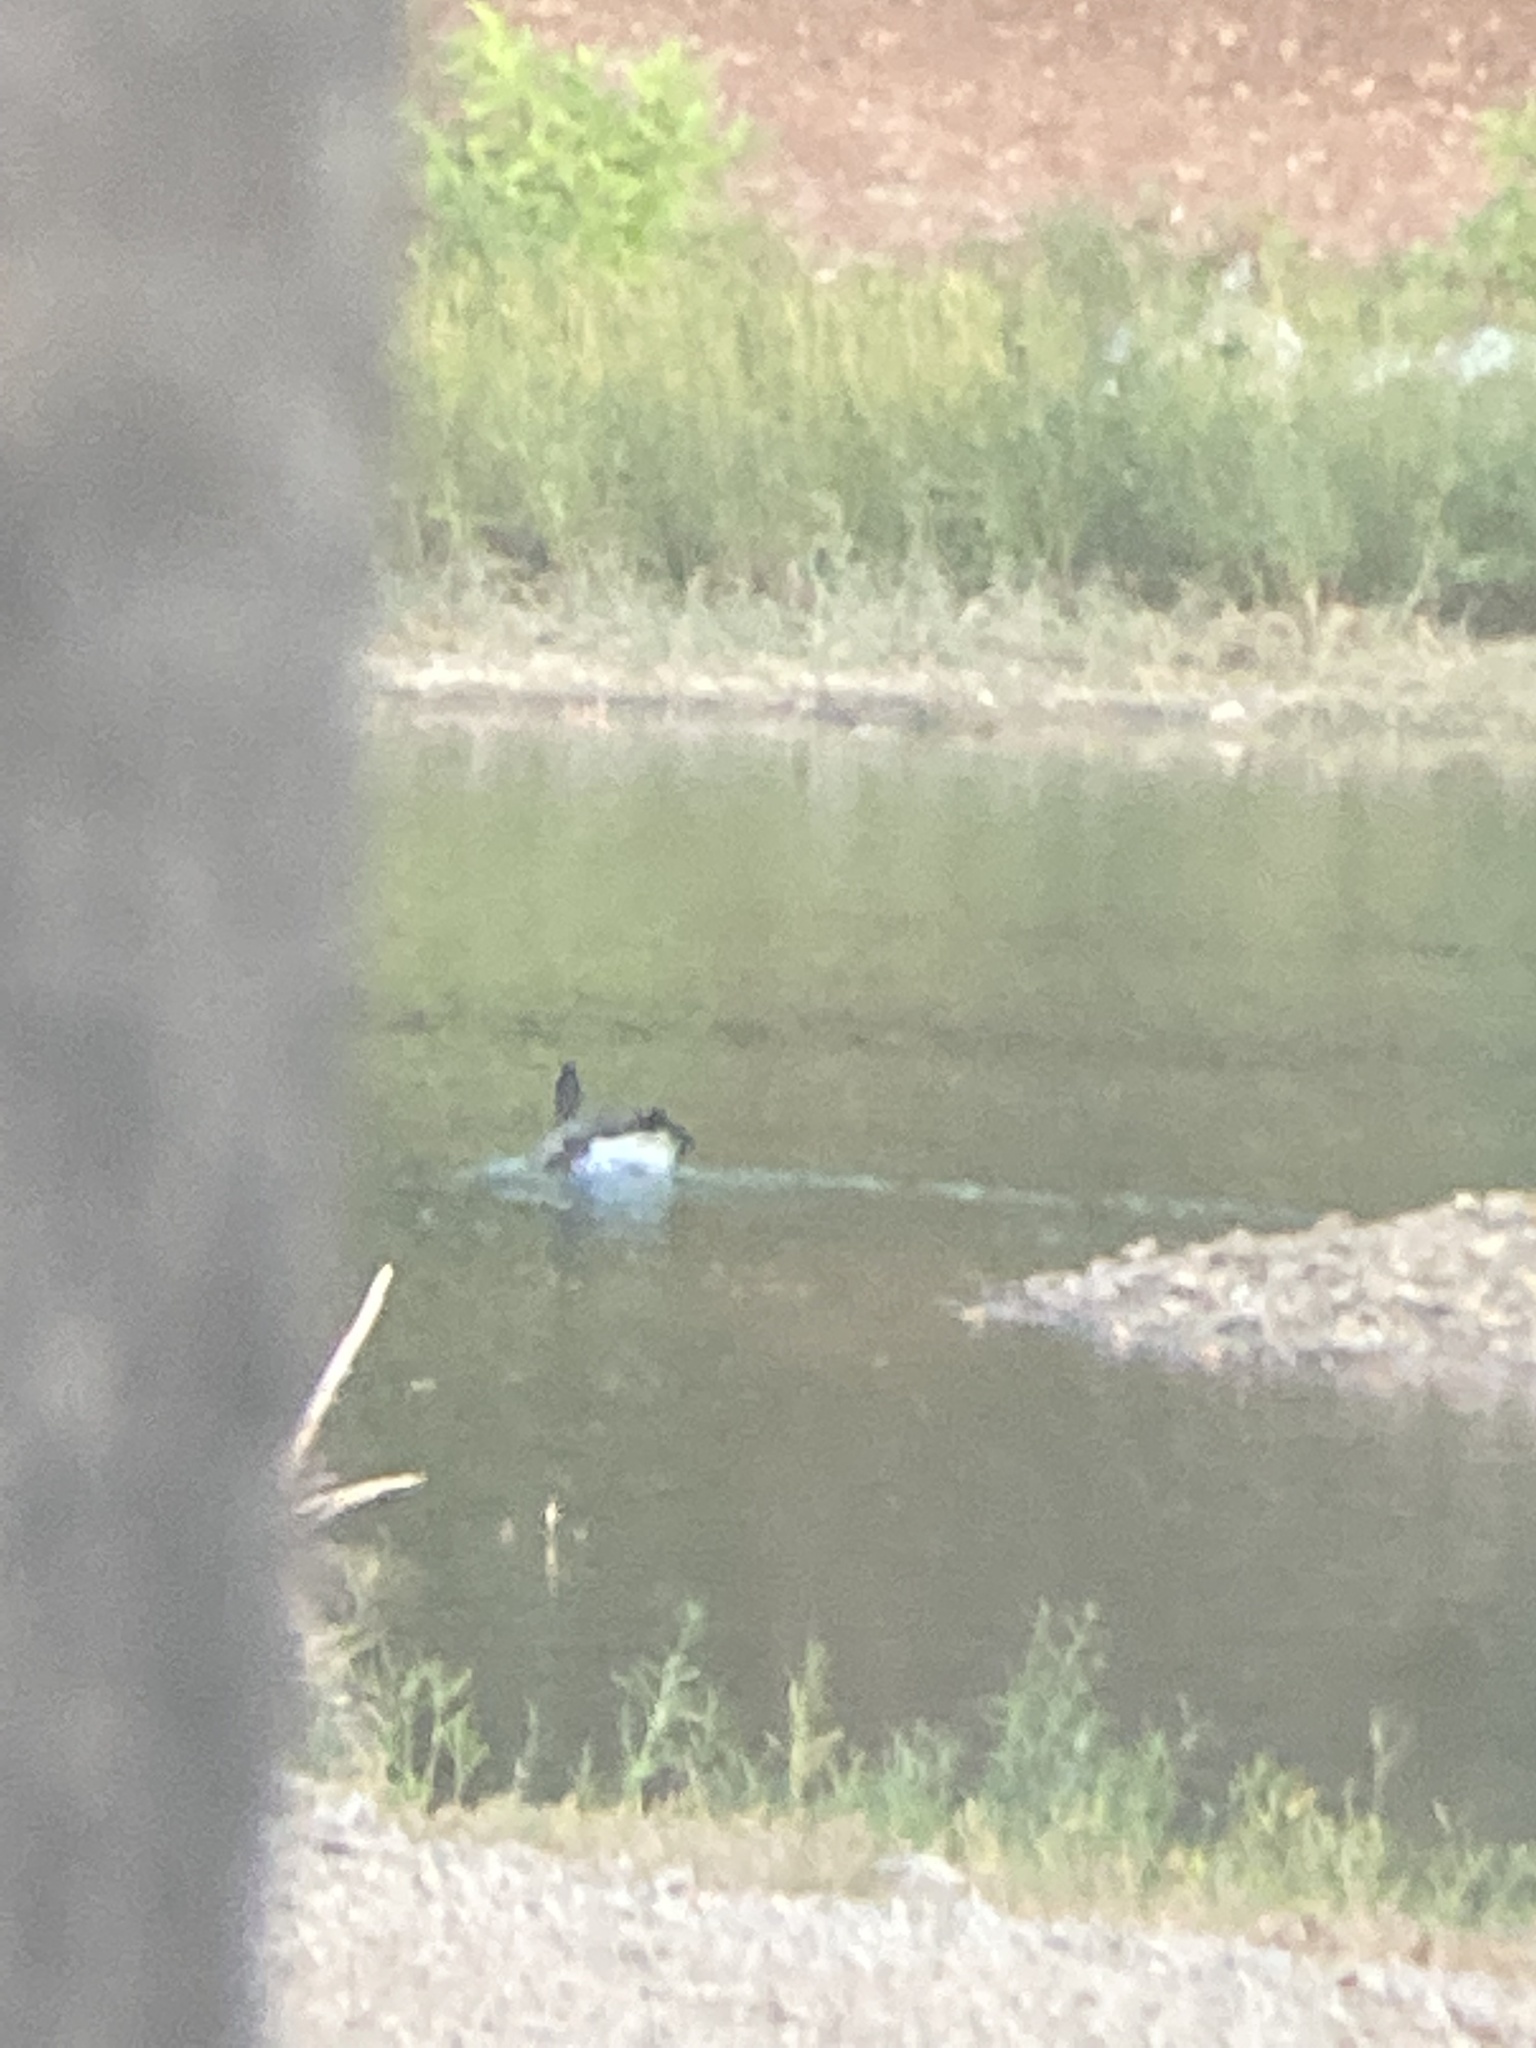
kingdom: Animalia
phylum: Chordata
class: Aves
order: Anseriformes
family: Anatidae
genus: Branta
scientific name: Branta canadensis
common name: Canada goose
